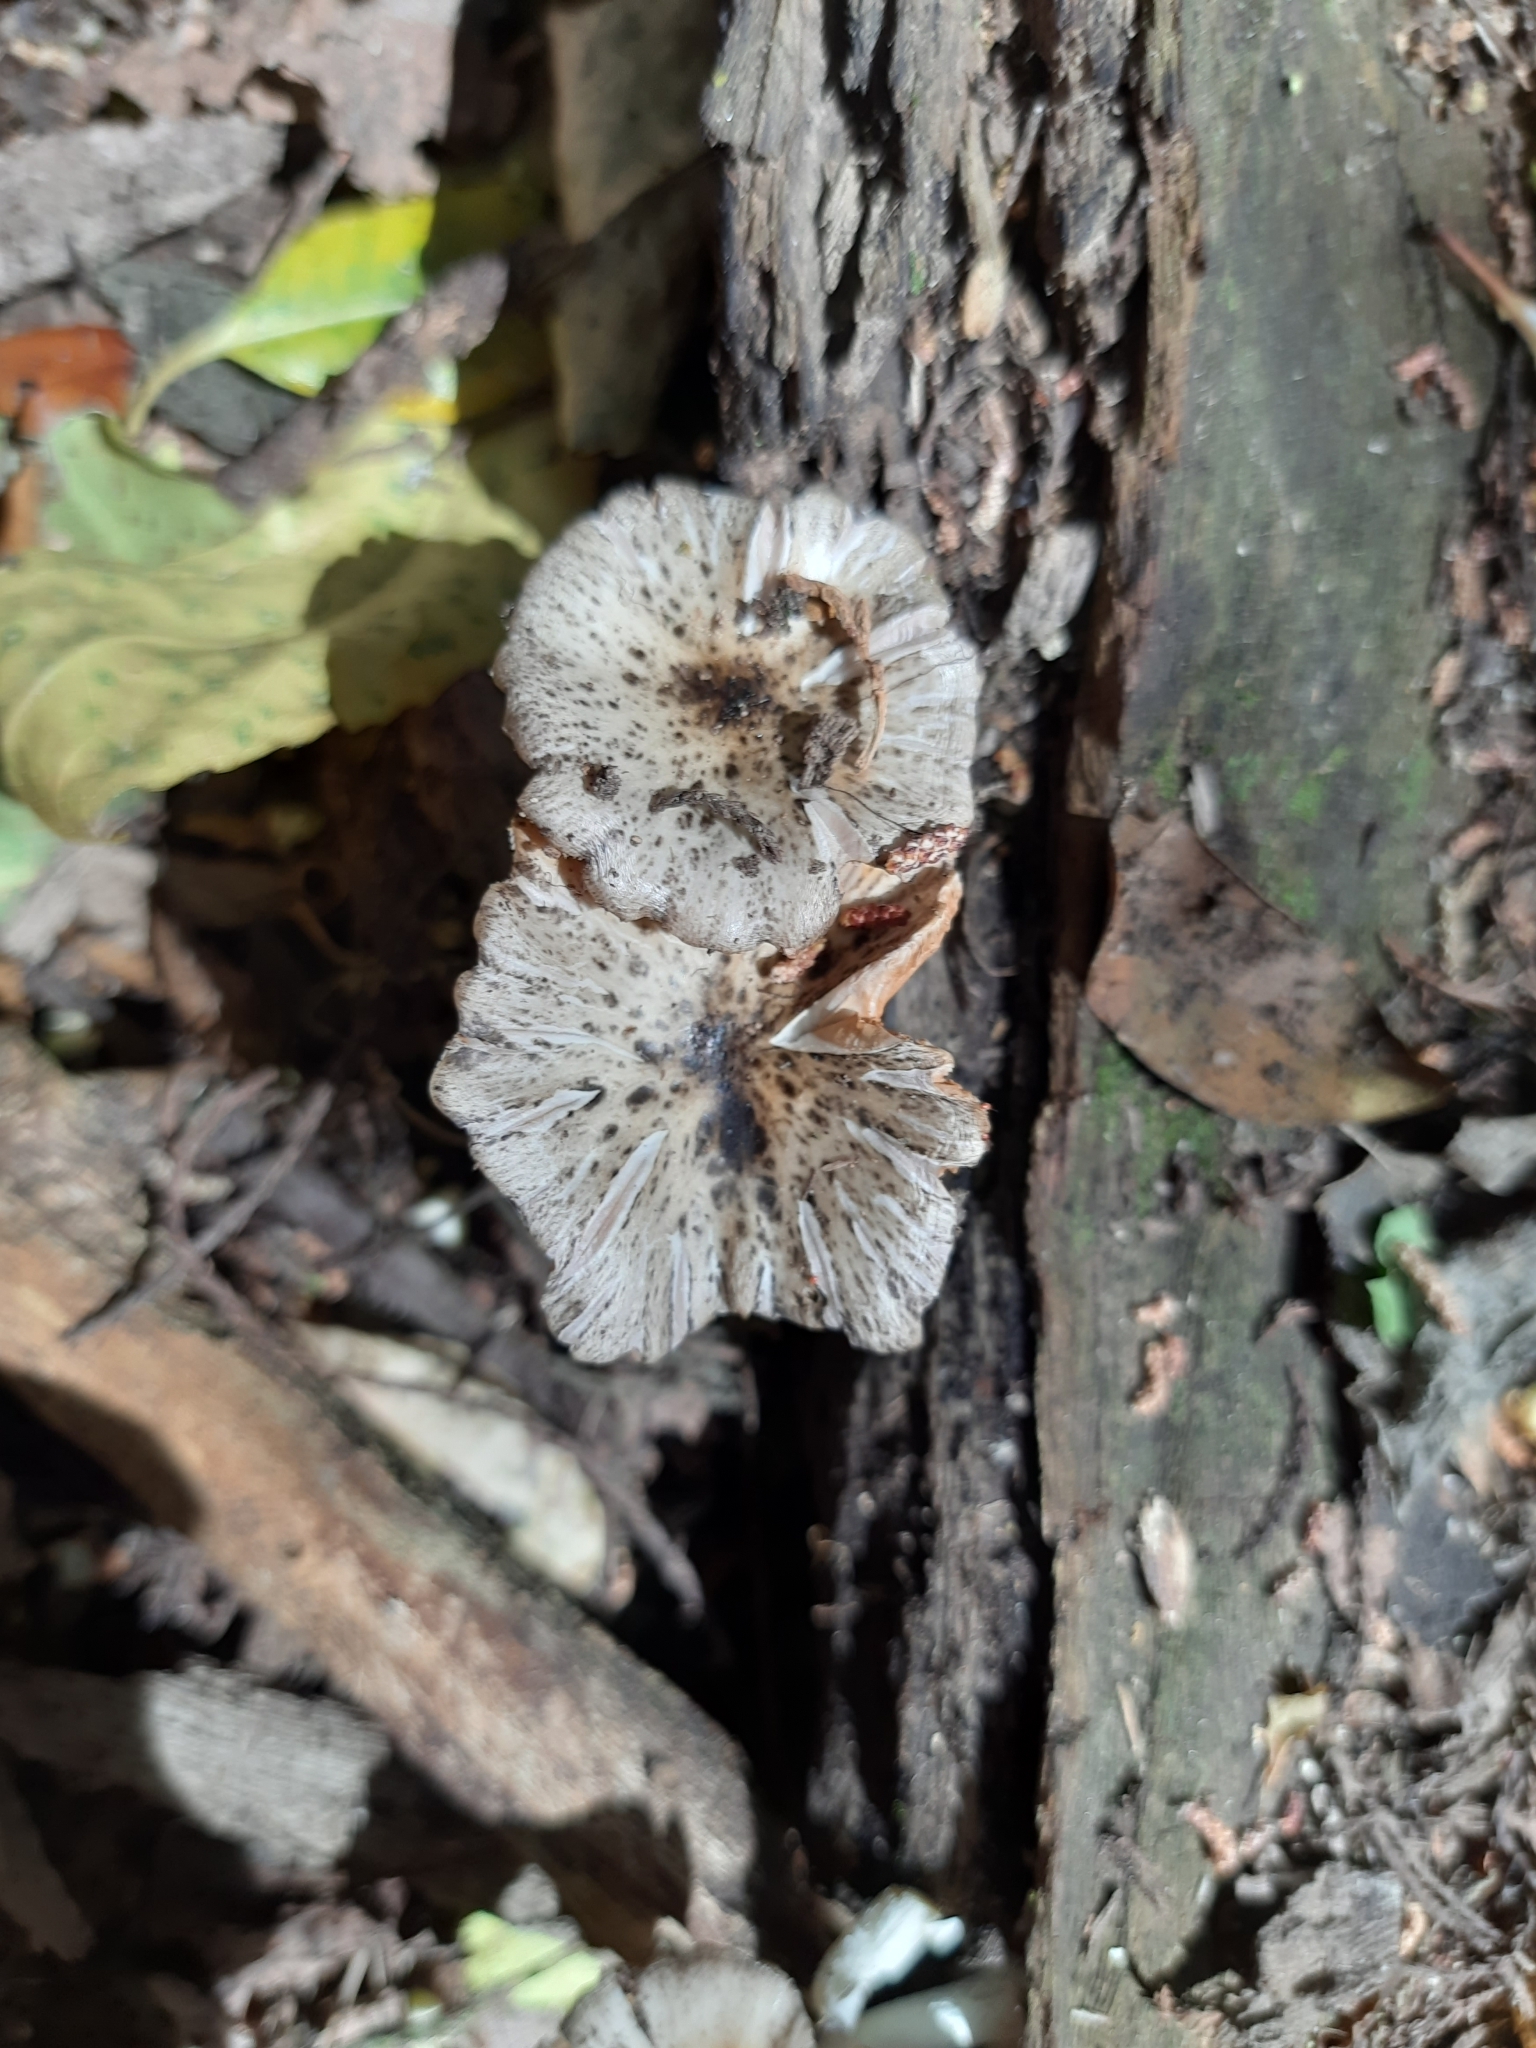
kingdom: Fungi
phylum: Basidiomycota
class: Agaricomycetes
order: Agaricales
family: Bolbitiaceae
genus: Bolbitius
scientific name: Bolbitius muscicola
